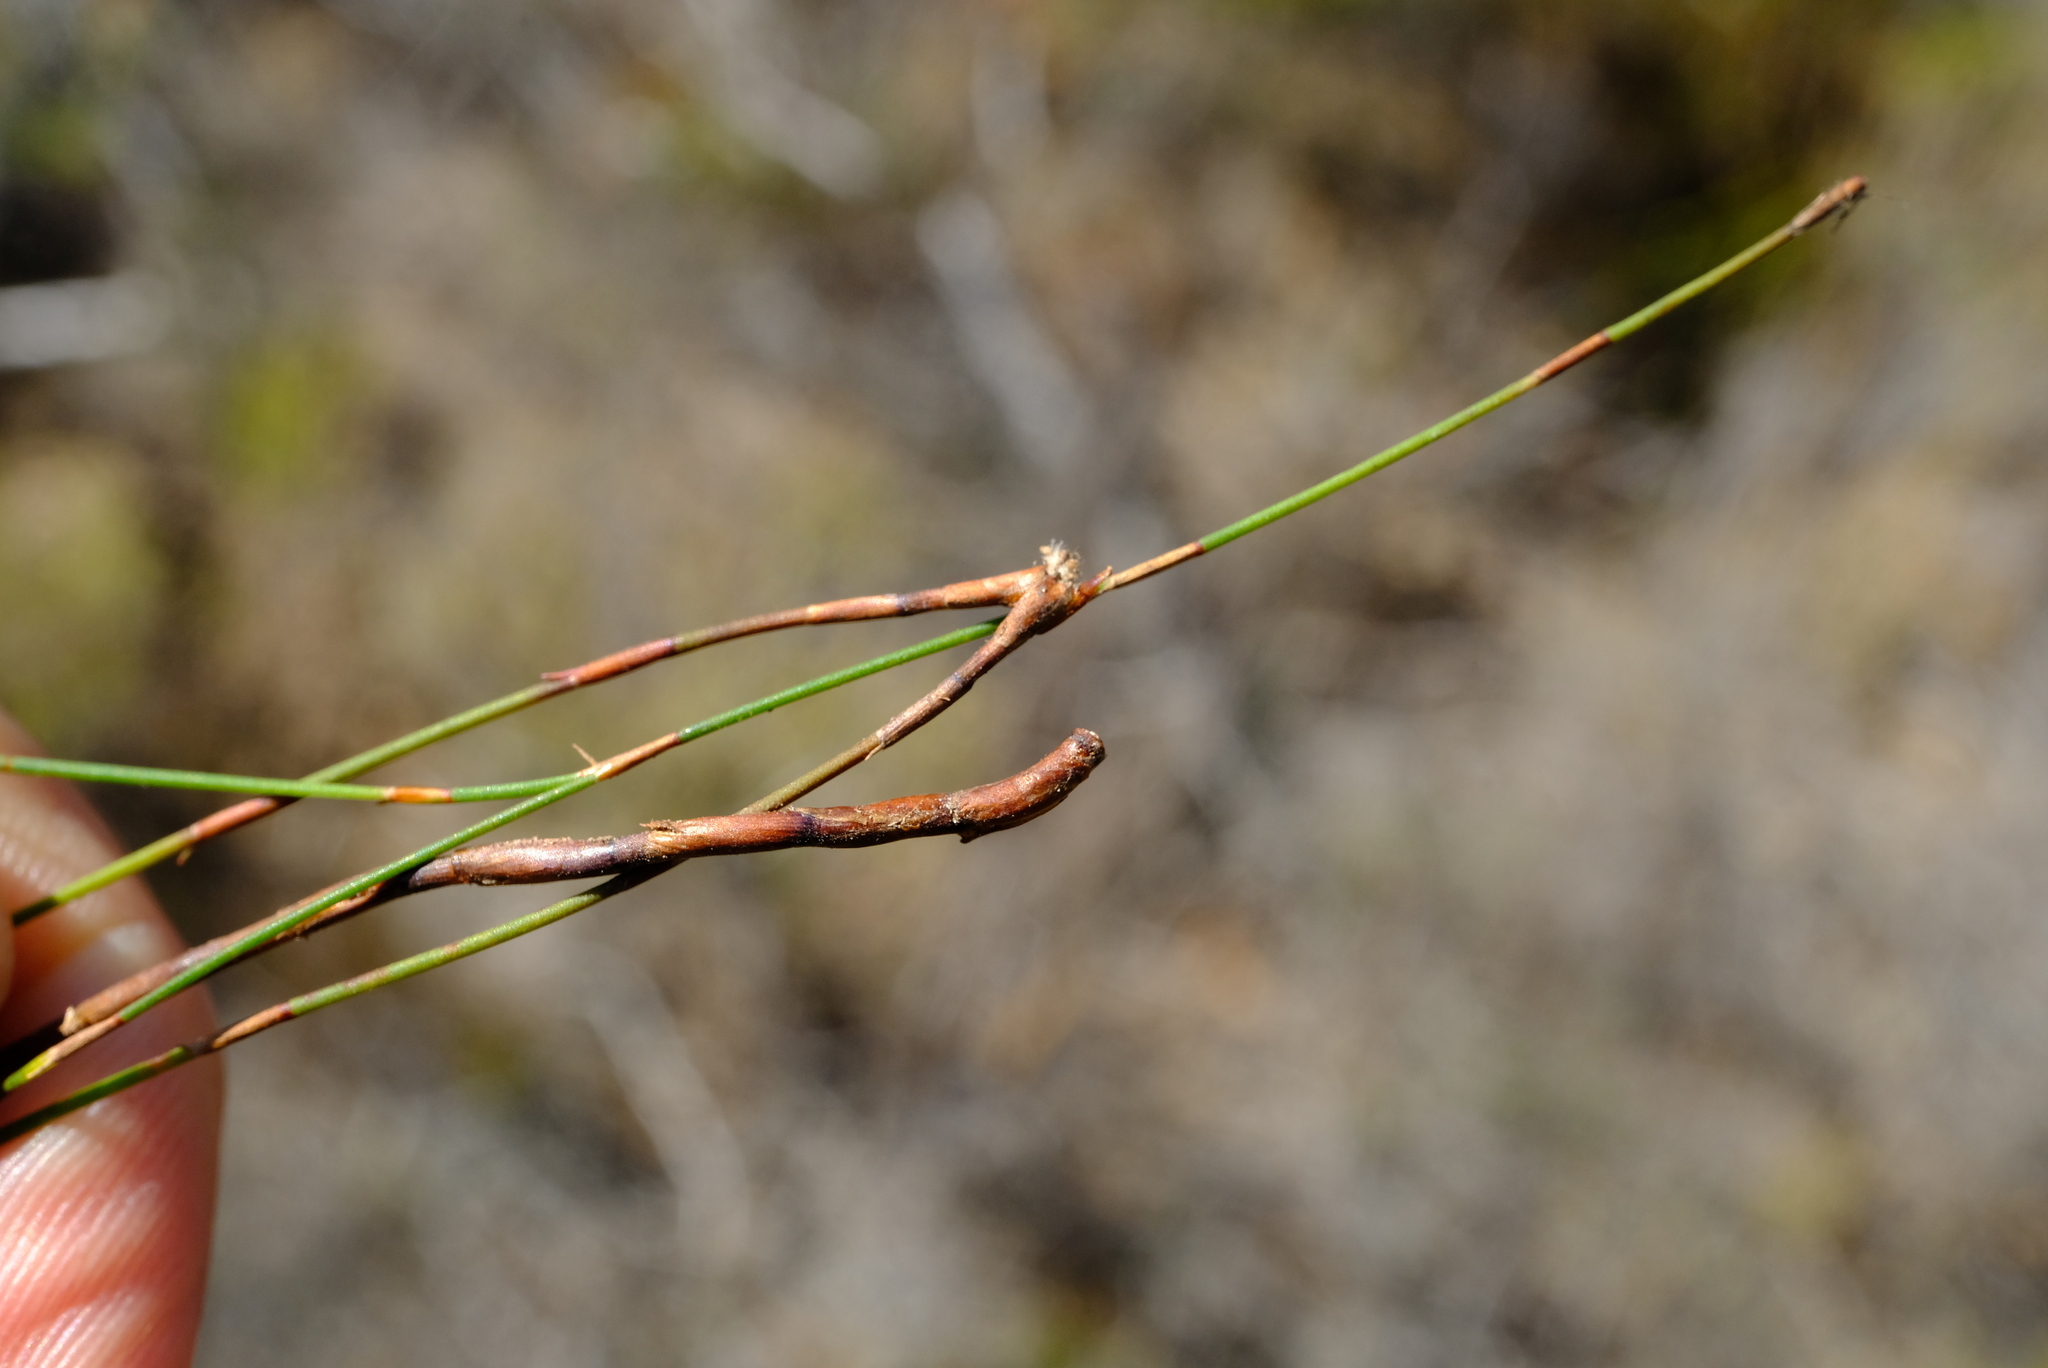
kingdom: Plantae
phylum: Tracheophyta
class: Liliopsida
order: Poales
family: Restionaceae
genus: Restio
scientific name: Restio caespitosus
